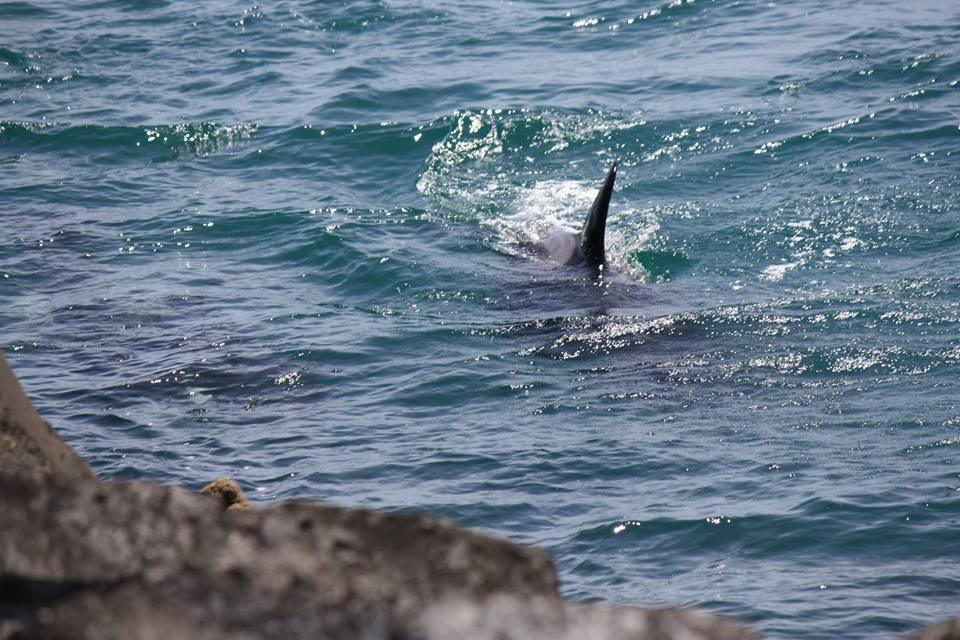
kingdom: Animalia
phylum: Chordata
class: Mammalia
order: Cetacea
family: Delphinidae
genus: Orcinus
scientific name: Orcinus orca
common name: Killer whale
